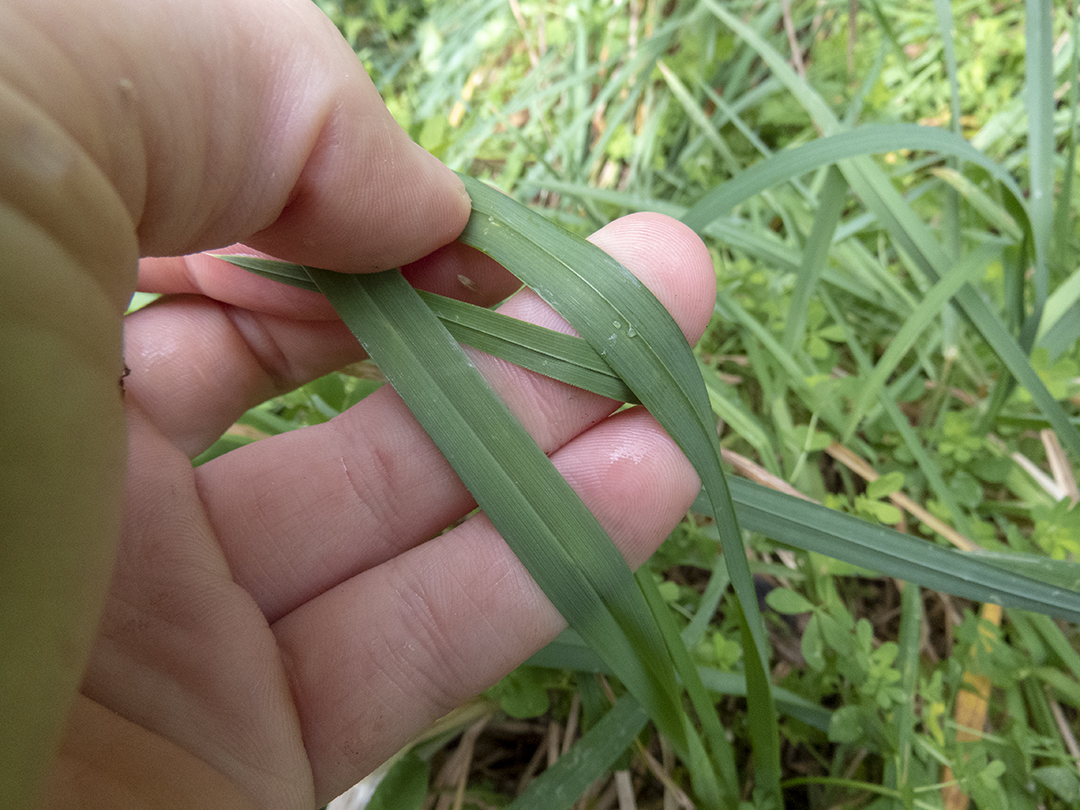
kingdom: Plantae
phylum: Tracheophyta
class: Liliopsida
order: Poales
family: Poaceae
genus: Dactylis
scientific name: Dactylis glomerata
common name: Orchardgrass
